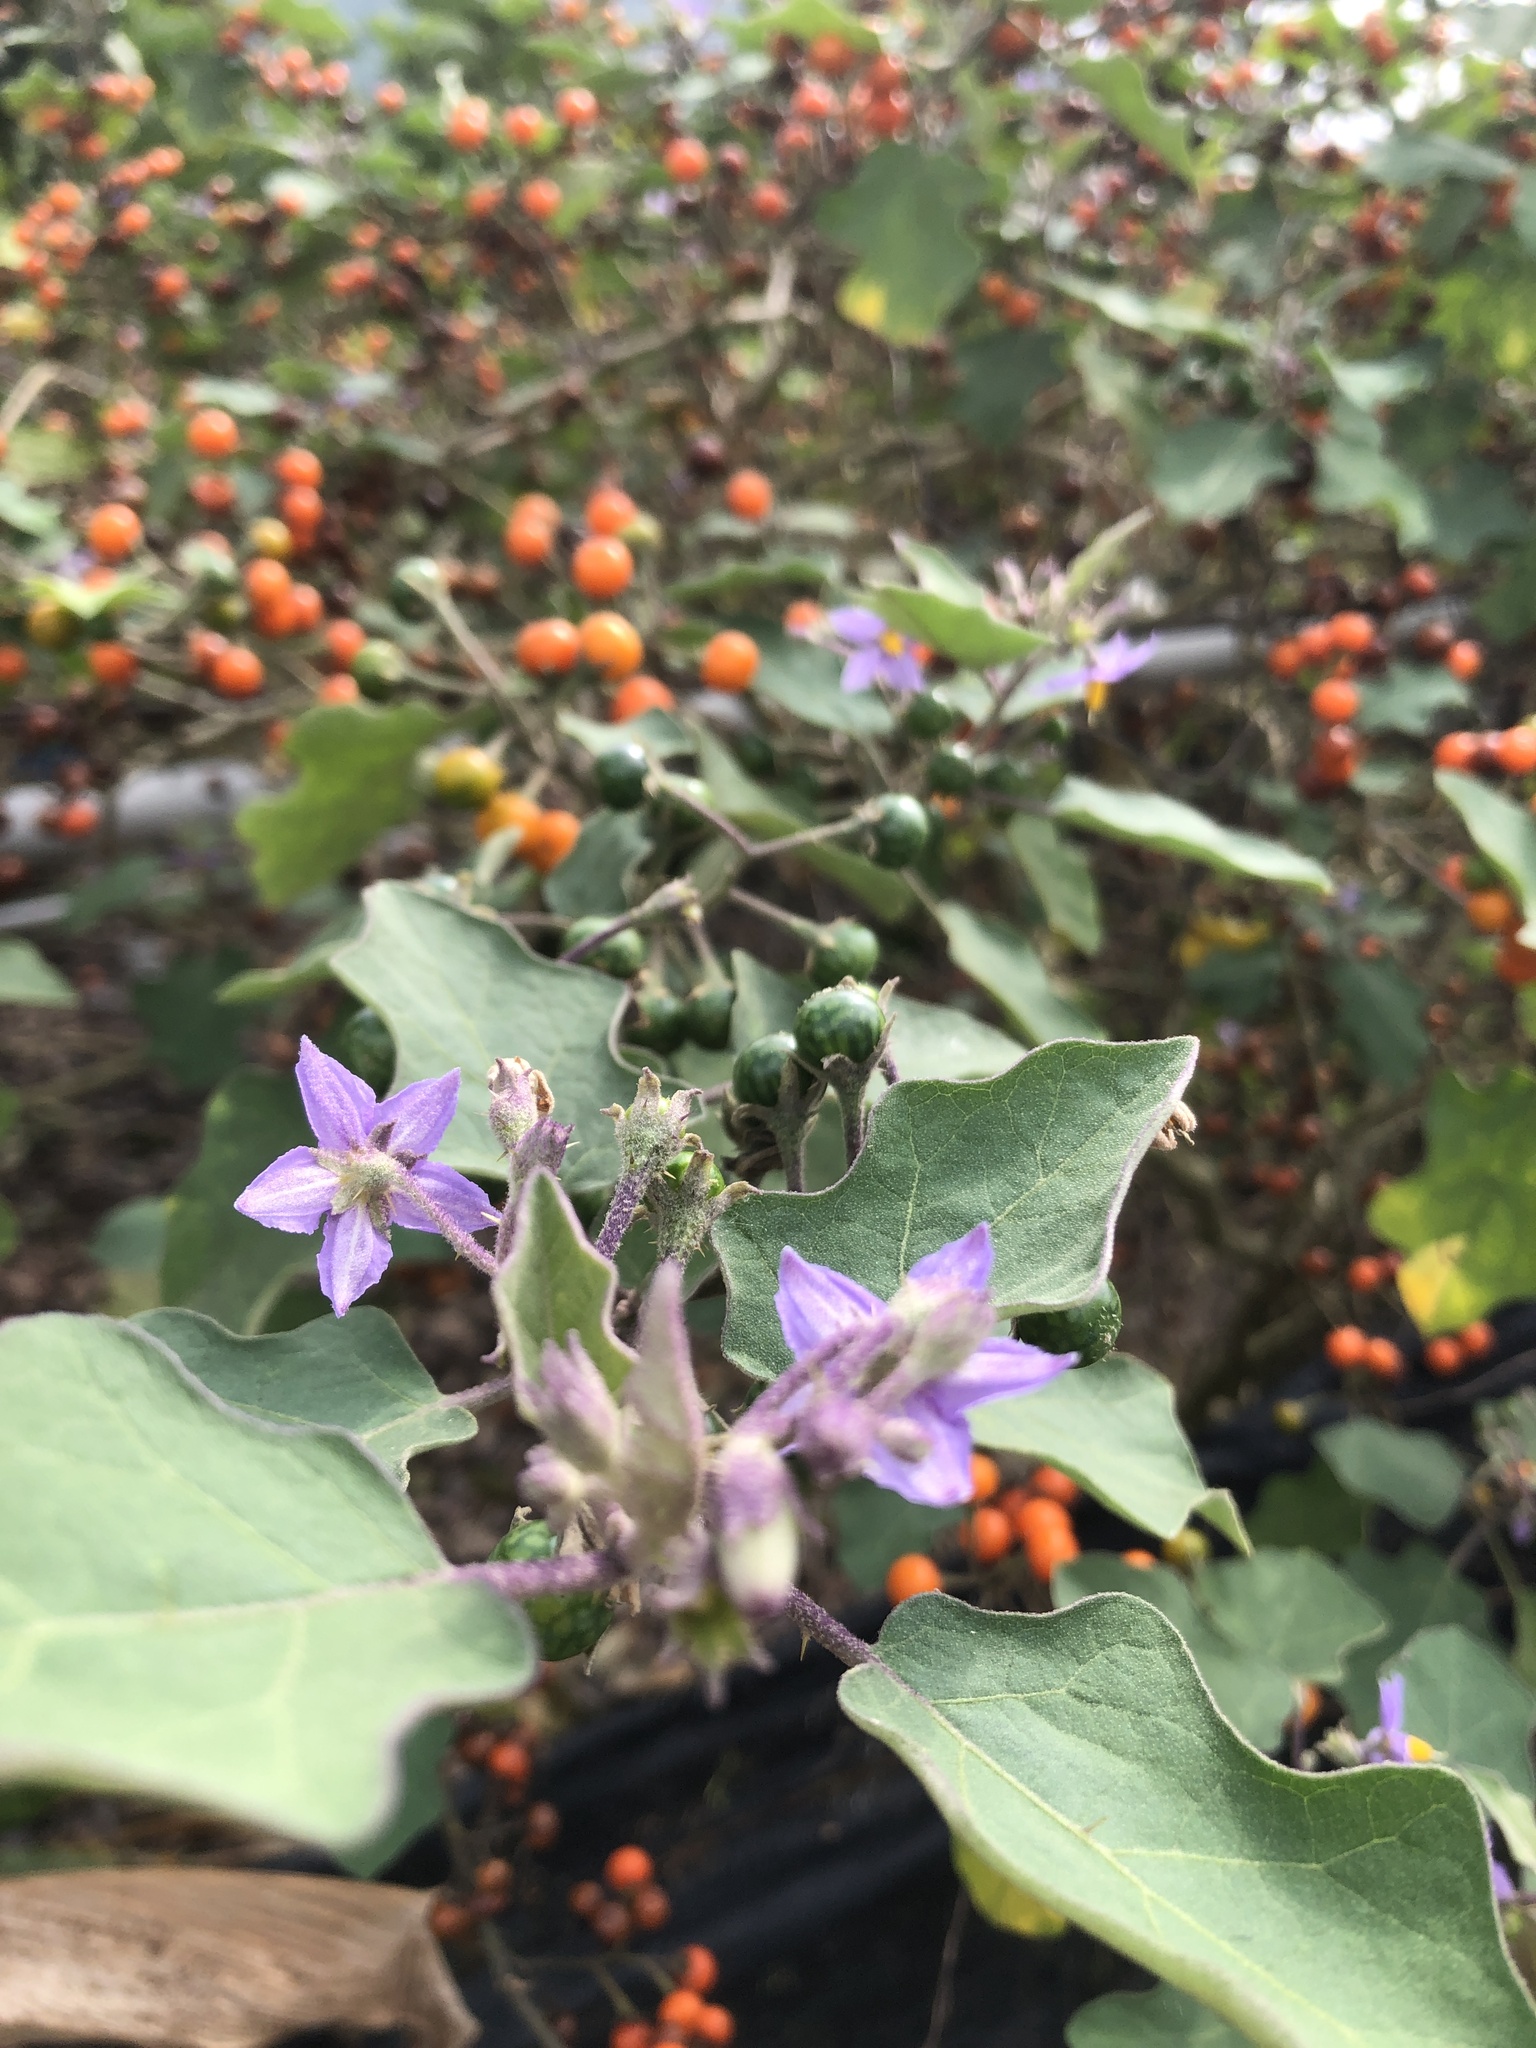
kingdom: Plantae
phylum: Tracheophyta
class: Magnoliopsida
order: Solanales
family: Solanaceae
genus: Solanum
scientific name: Solanum violaceum
